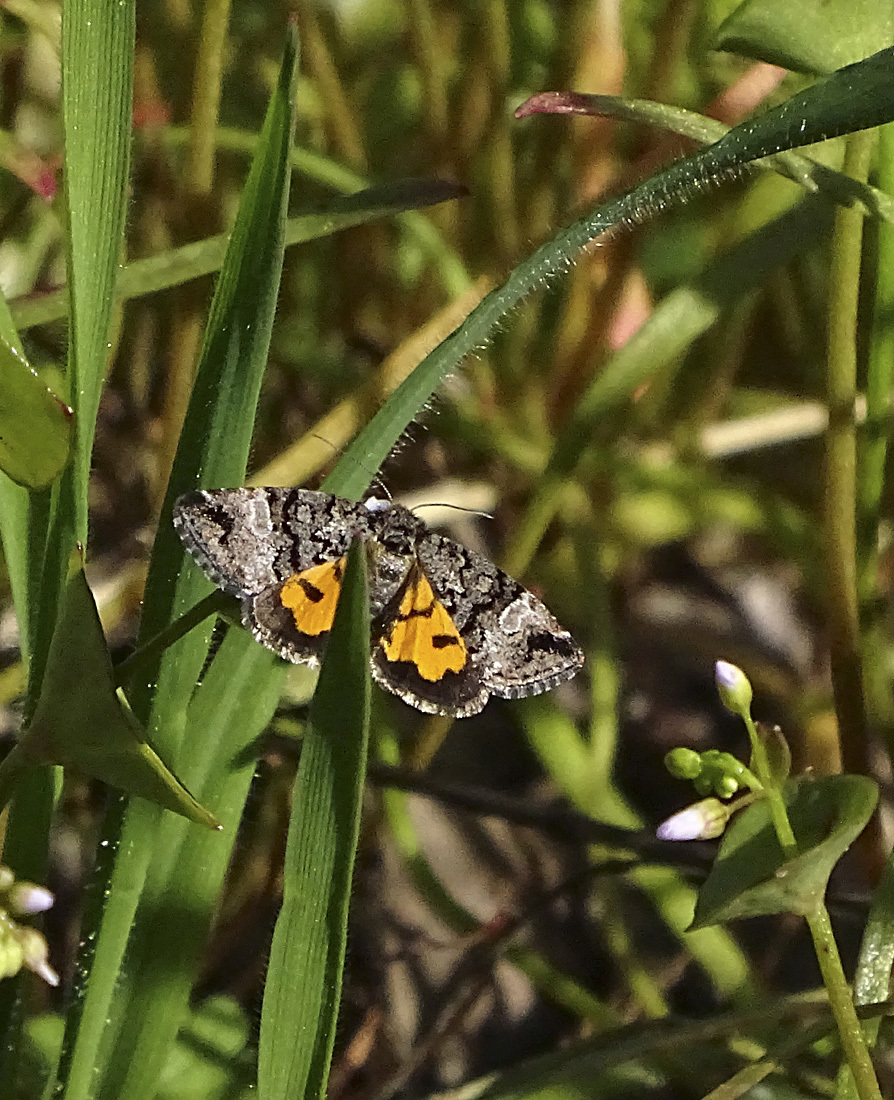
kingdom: Animalia
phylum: Arthropoda
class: Insecta
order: Lepidoptera
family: Noctuidae
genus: Annaphila
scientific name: Annaphila decia
